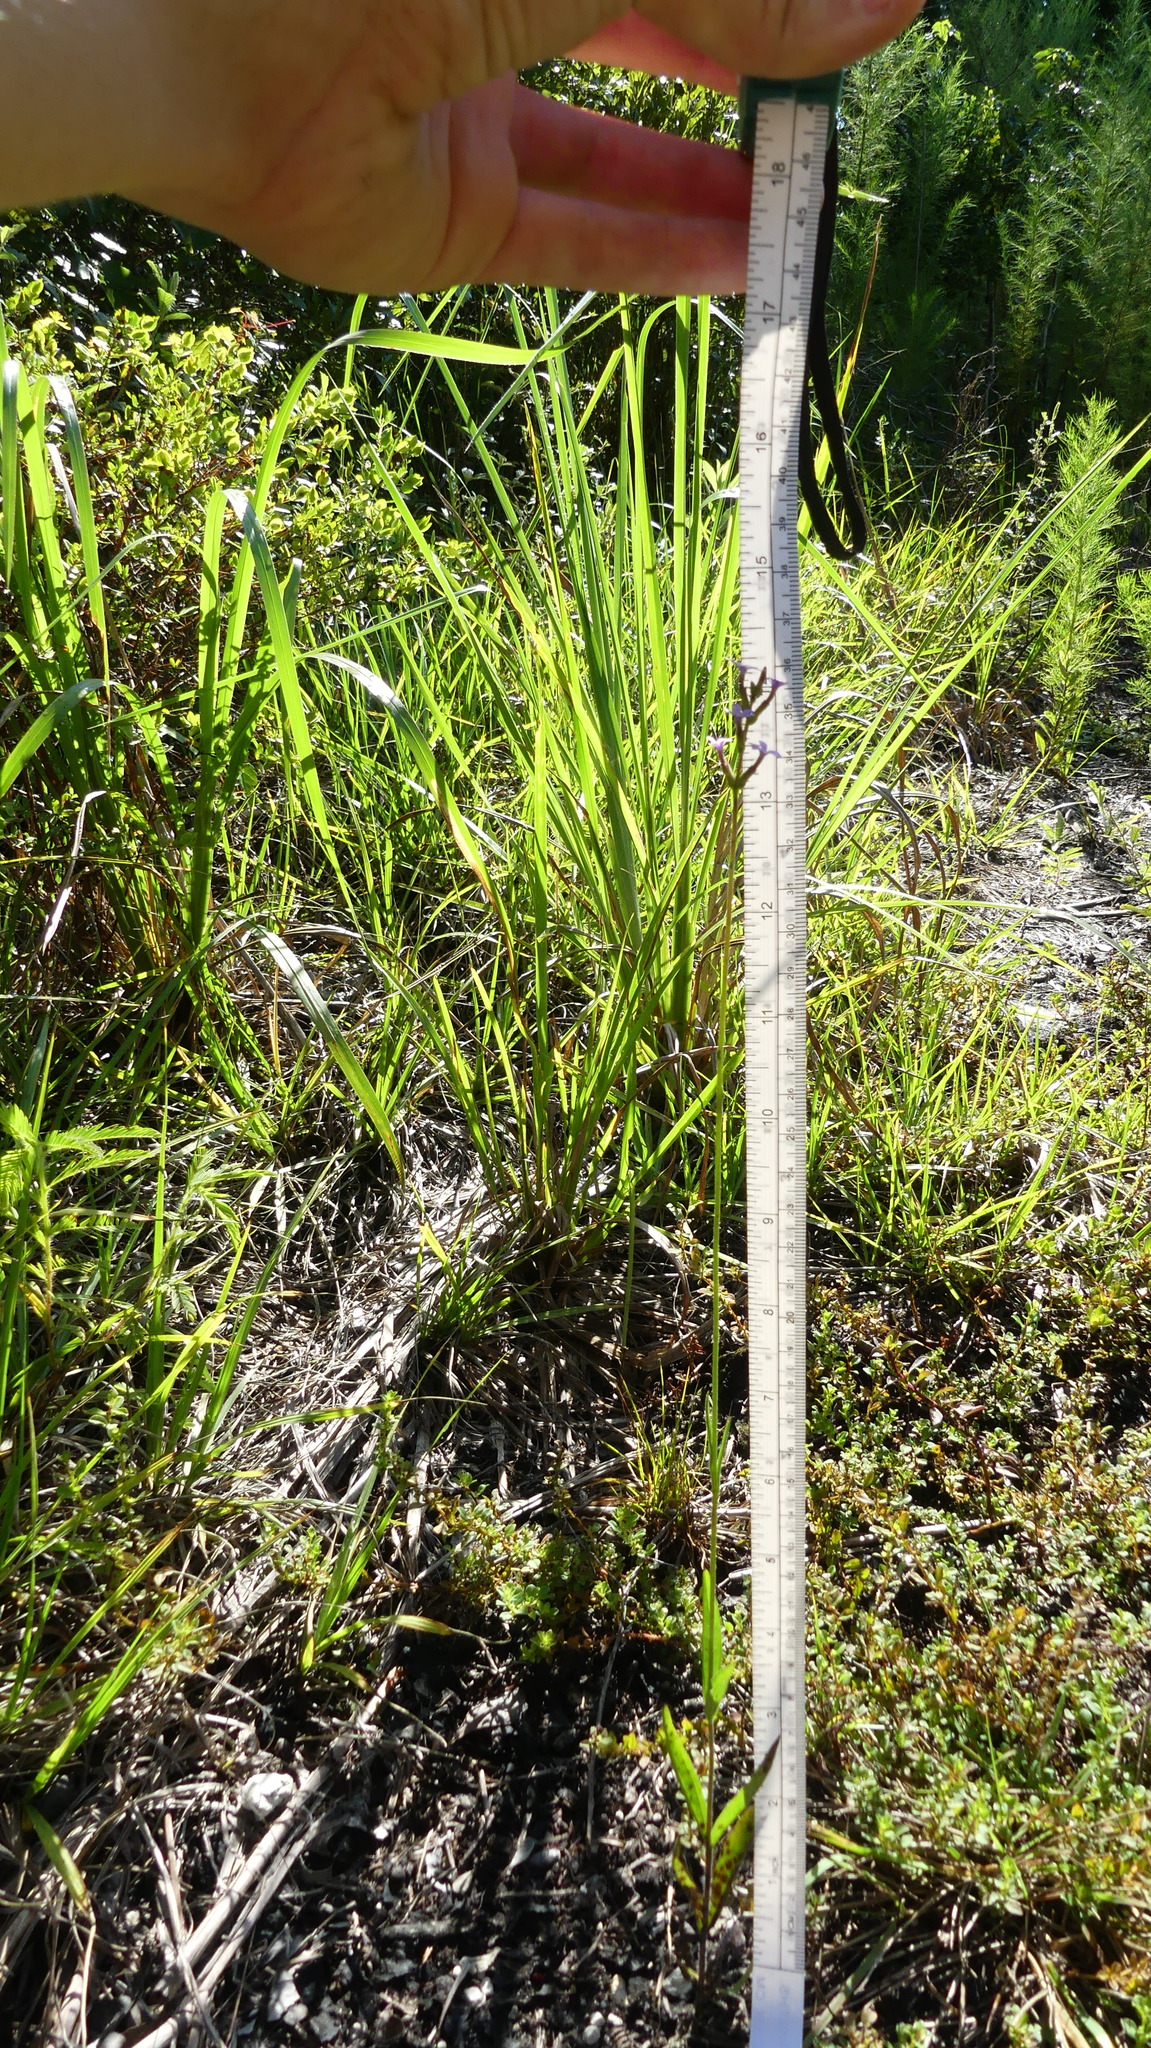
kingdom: Plantae
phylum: Tracheophyta
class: Magnoliopsida
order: Lamiales
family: Orobanchaceae
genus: Buchnera
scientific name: Buchnera floridana
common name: Florida bluehearts
